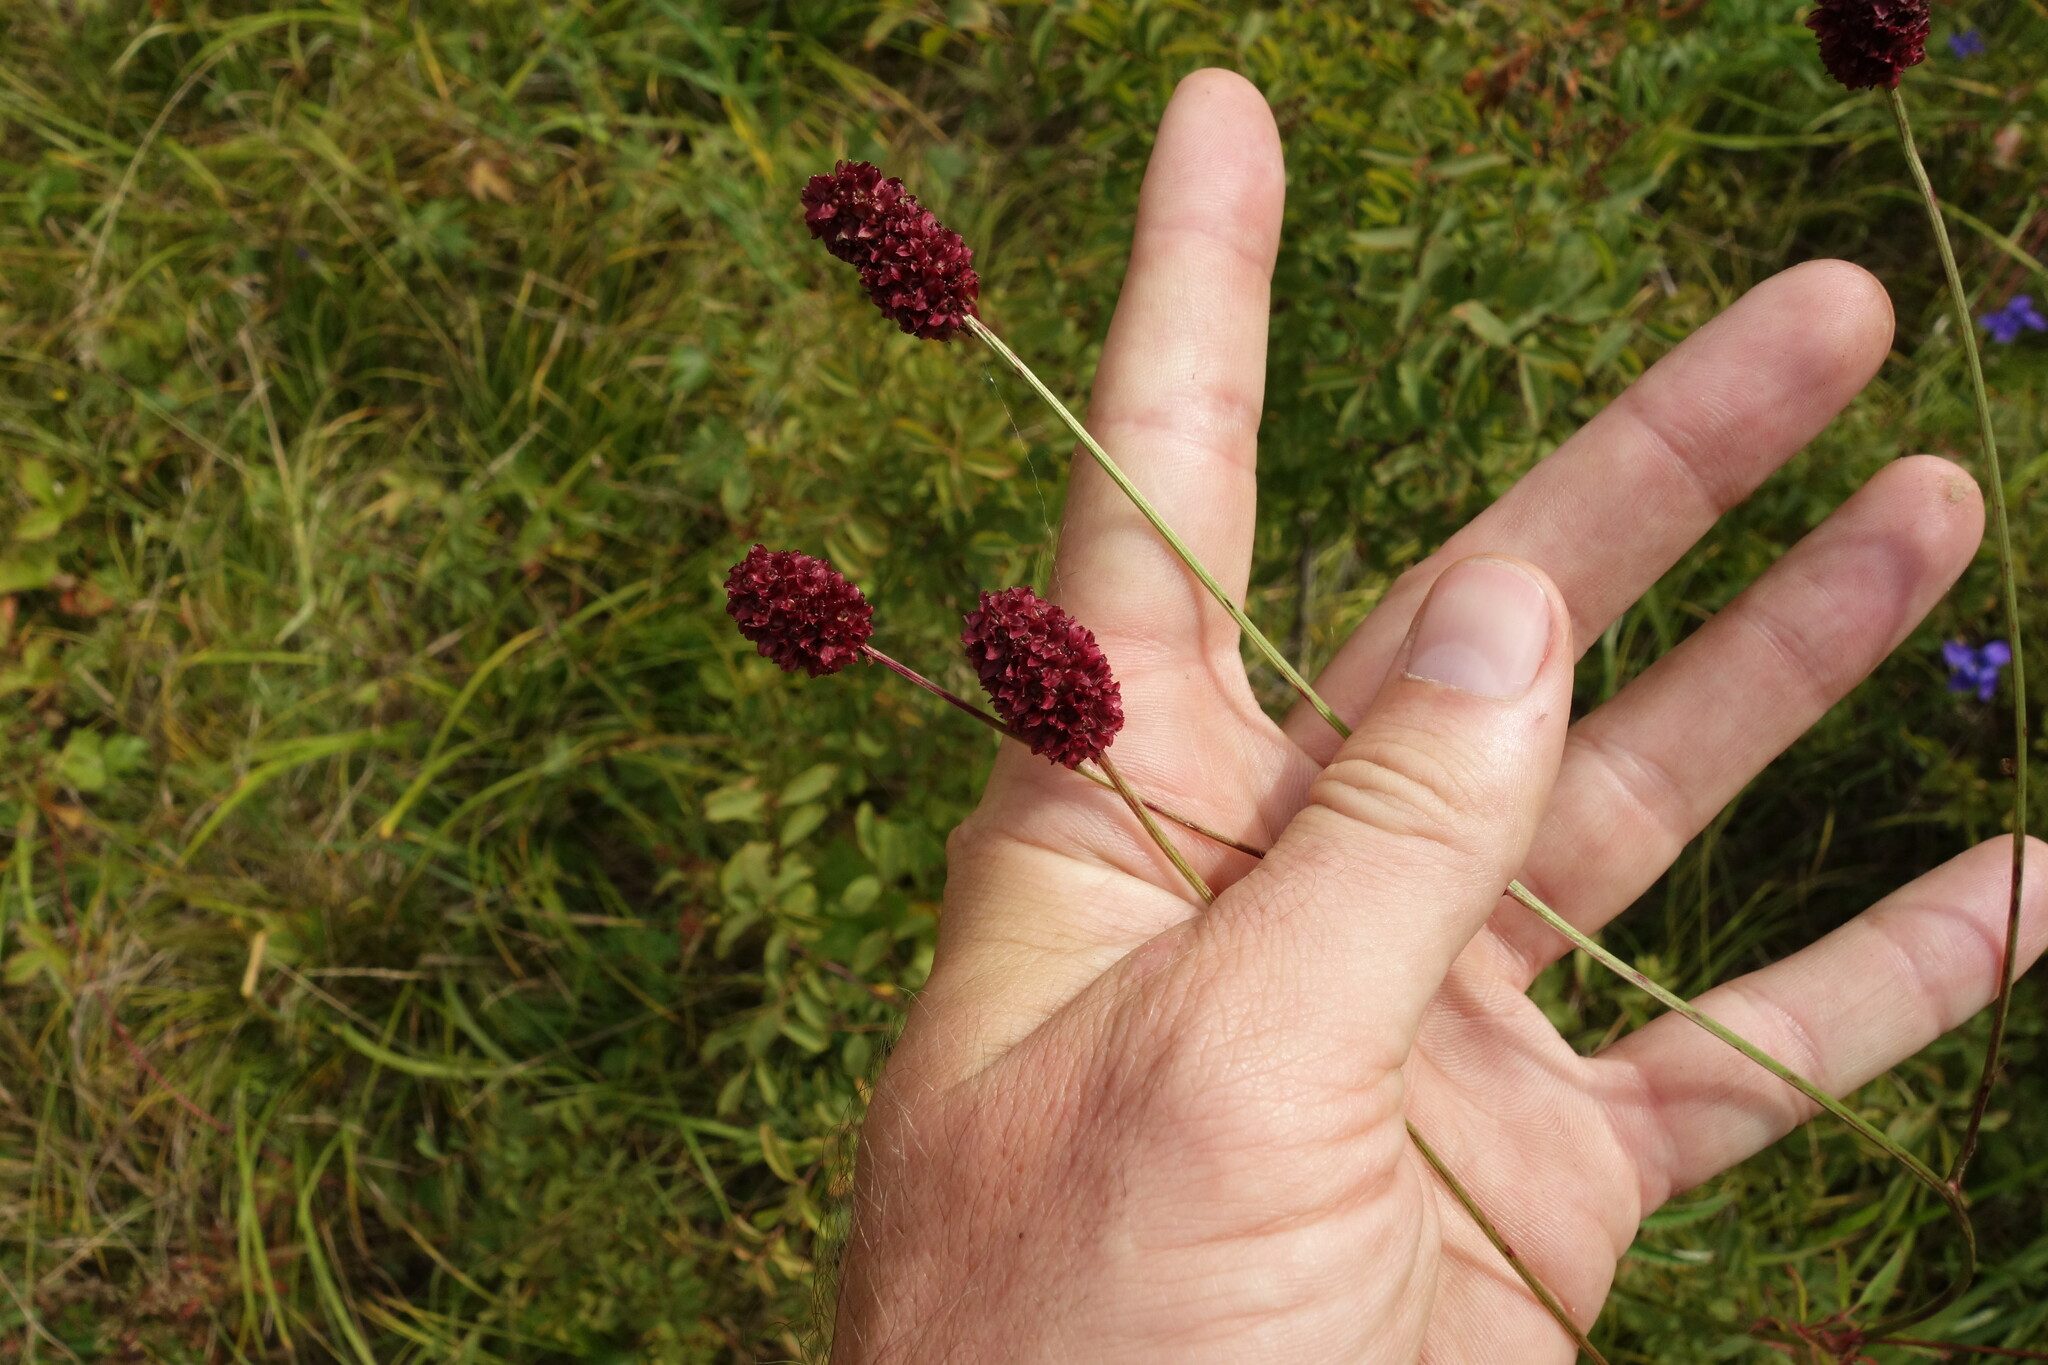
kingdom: Plantae
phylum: Tracheophyta
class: Magnoliopsida
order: Rosales
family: Rosaceae
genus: Sanguisorba
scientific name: Sanguisorba officinalis
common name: Great burnet
